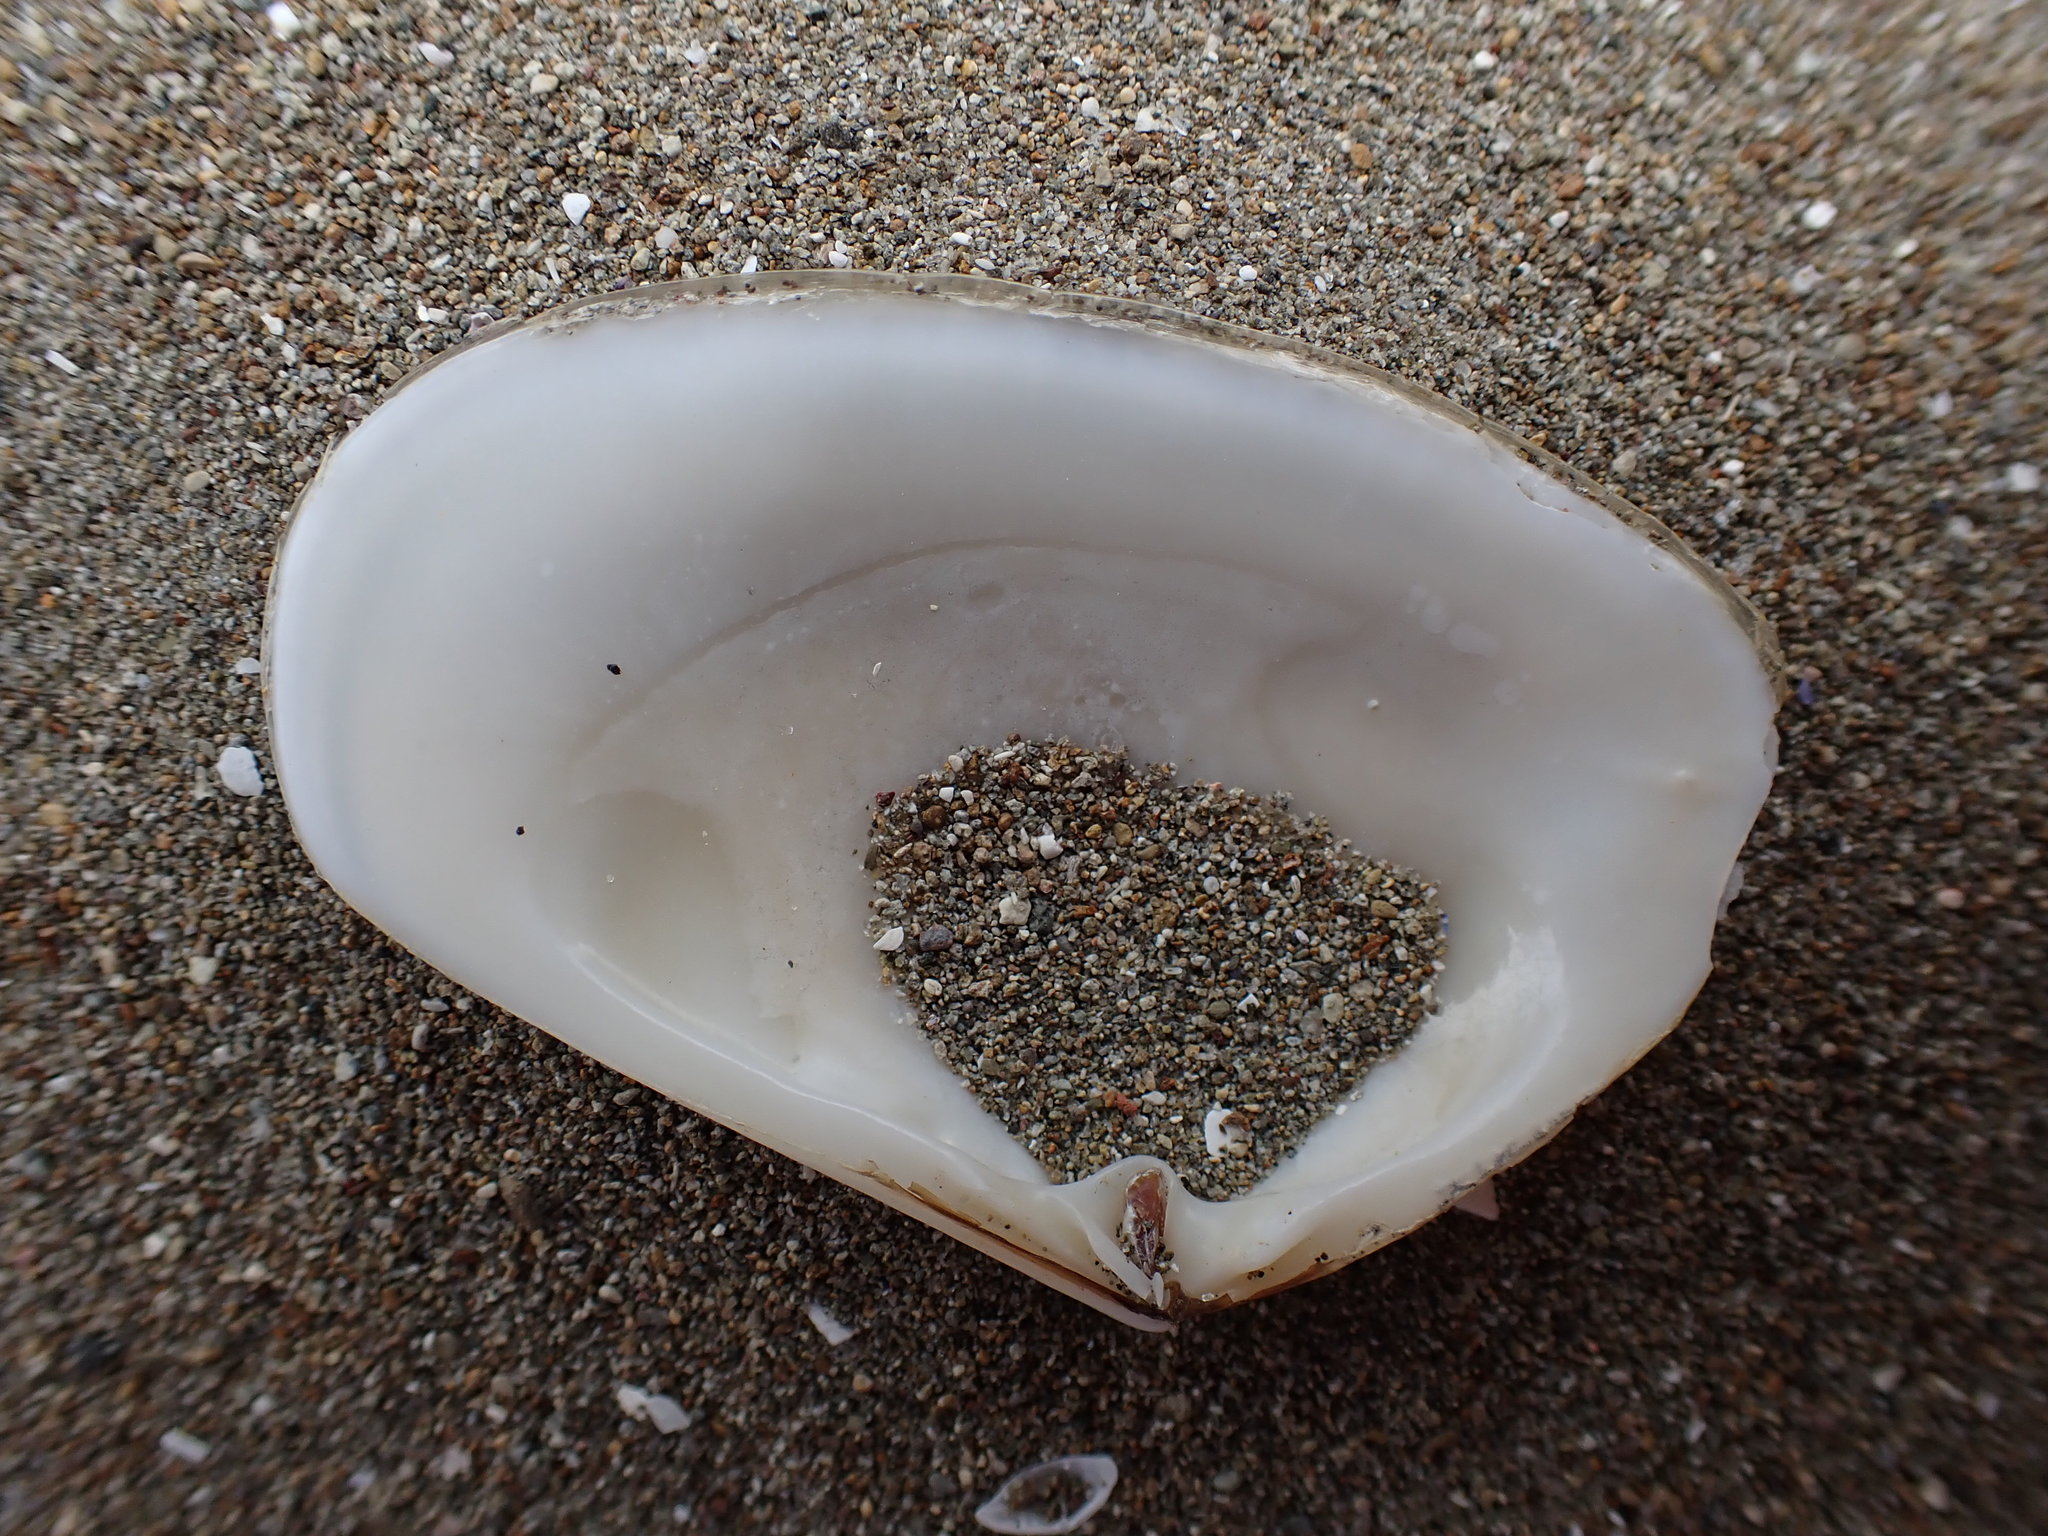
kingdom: Animalia
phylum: Mollusca
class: Bivalvia
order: Venerida
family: Mesodesmatidae
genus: Paphies
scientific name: Paphies subtriangulata
